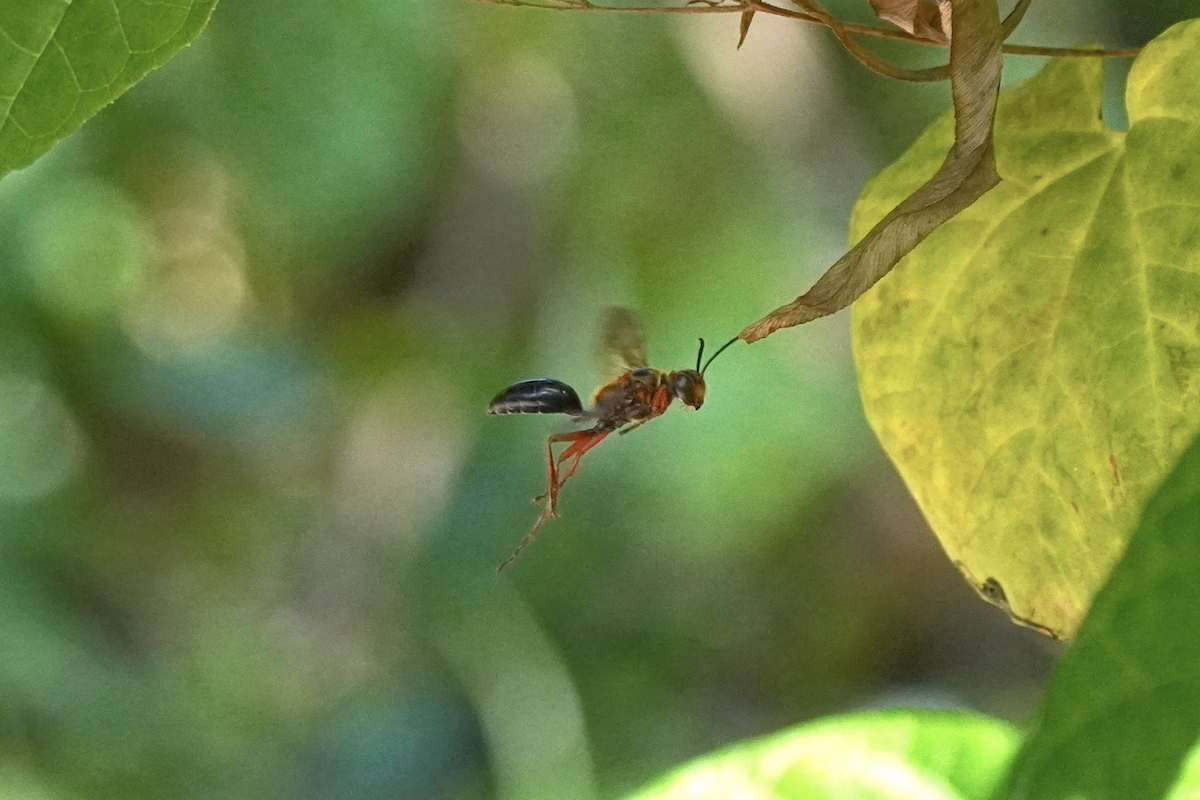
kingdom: Animalia
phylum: Arthropoda
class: Insecta
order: Hymenoptera
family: Sphecidae
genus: Sphex
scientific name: Sphex sericeus
